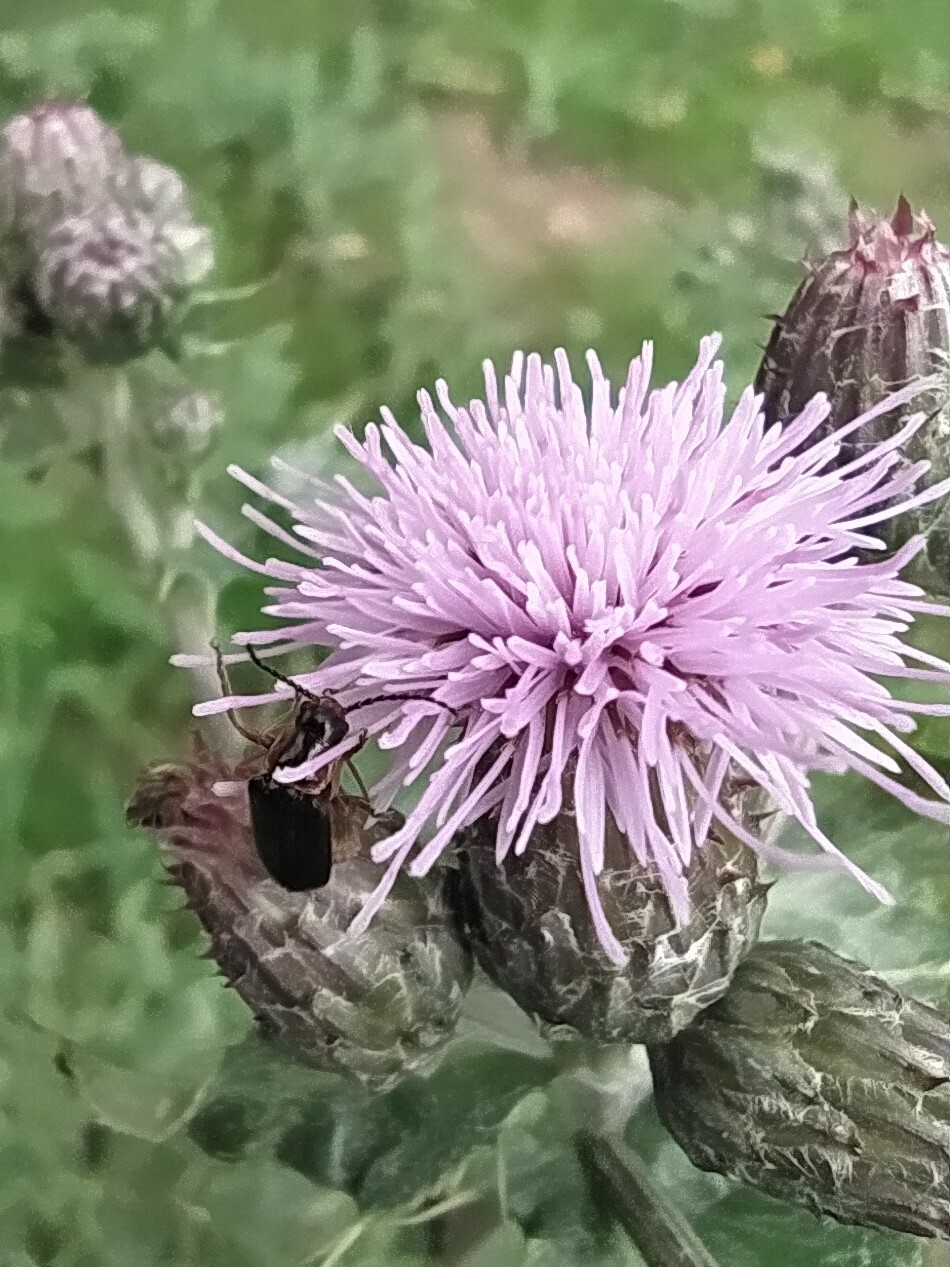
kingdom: Animalia
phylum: Arthropoda
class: Insecta
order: Coleoptera
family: Cantharidae
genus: Cantharis
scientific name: Cantharis flavilabris
